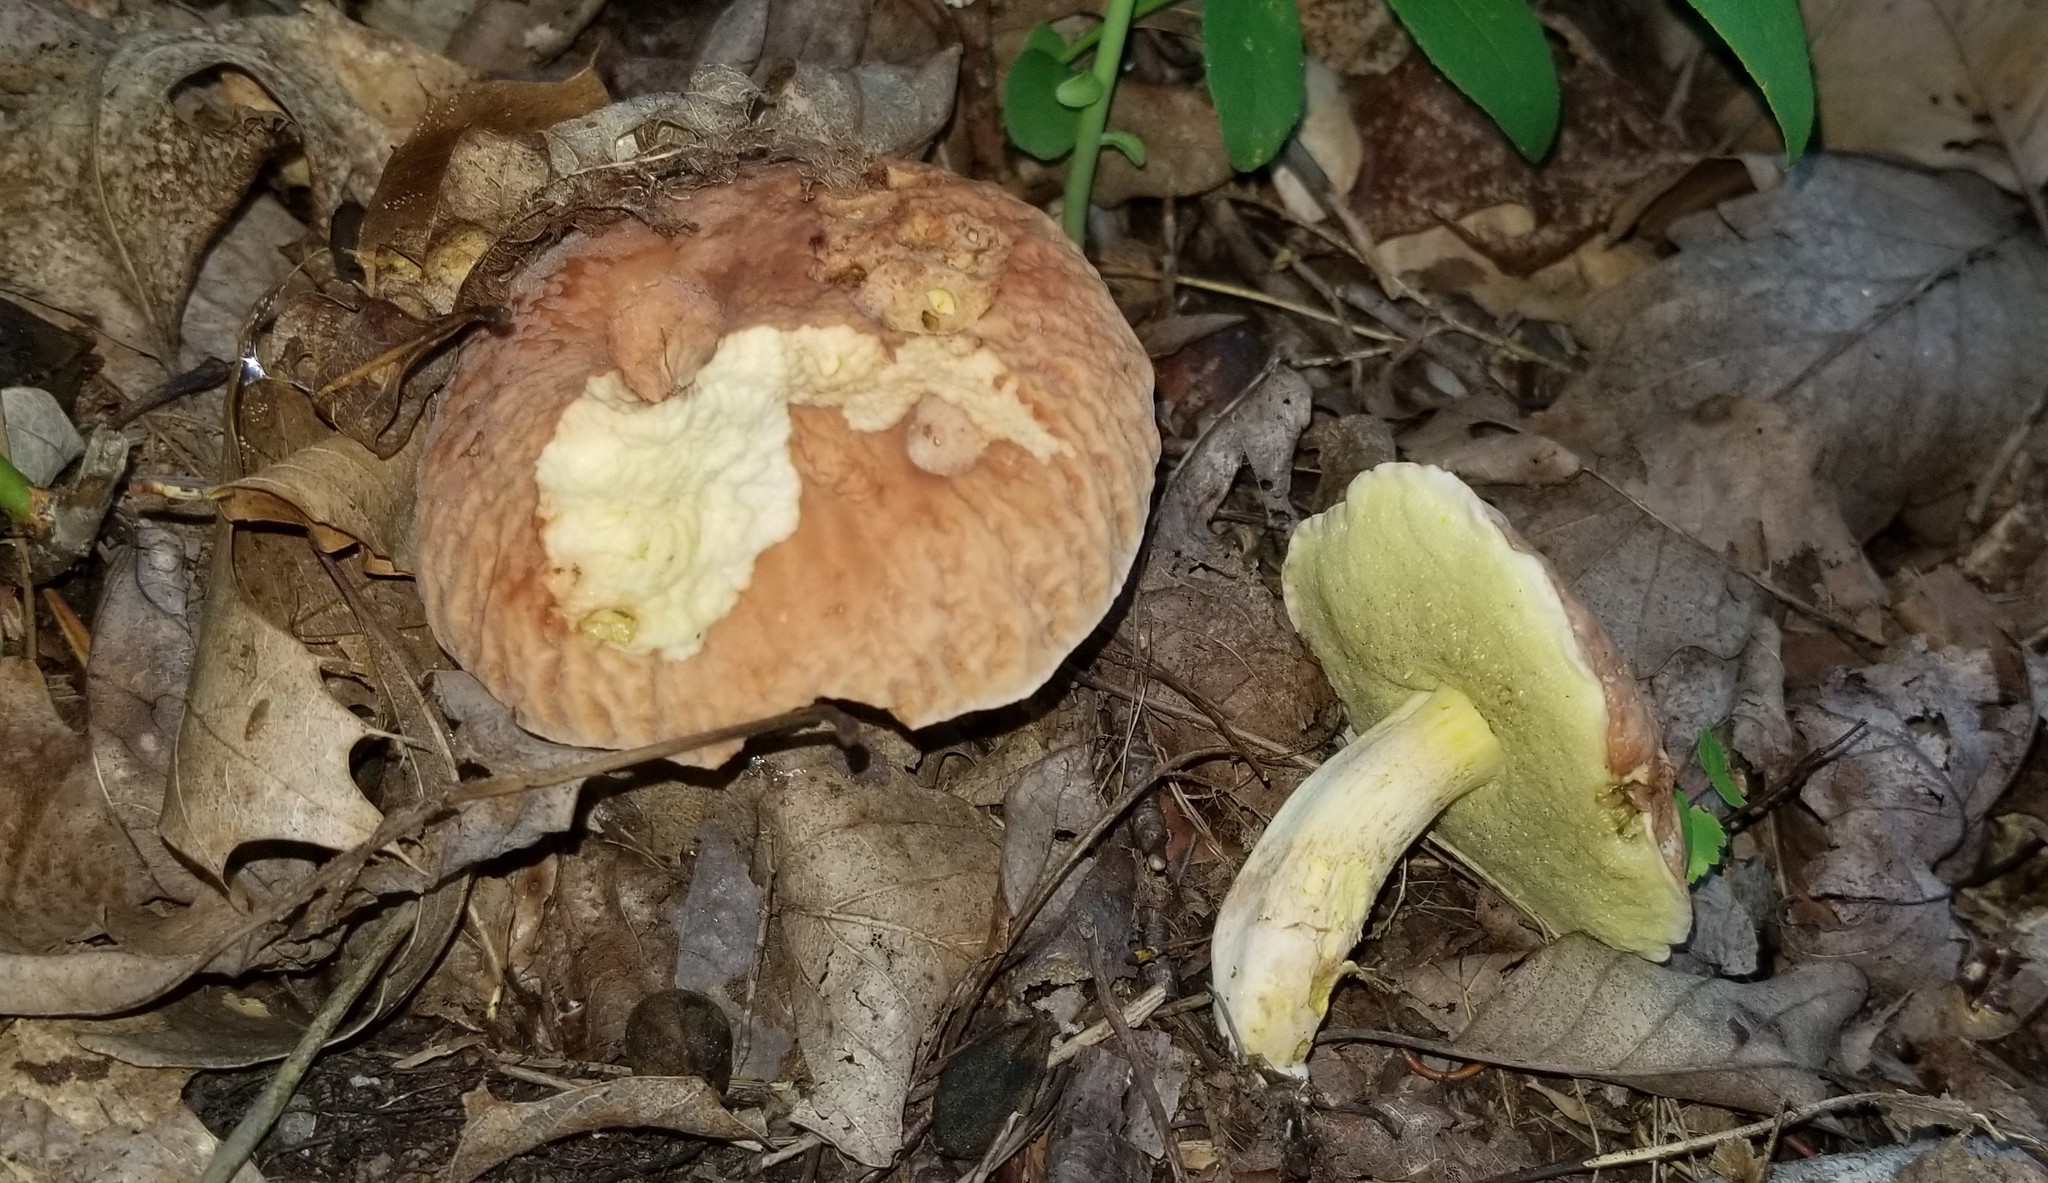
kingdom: Fungi
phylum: Basidiomycota
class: Agaricomycetes
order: Boletales
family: Boletaceae
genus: Hemileccinum
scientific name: Hemileccinum hortonii
